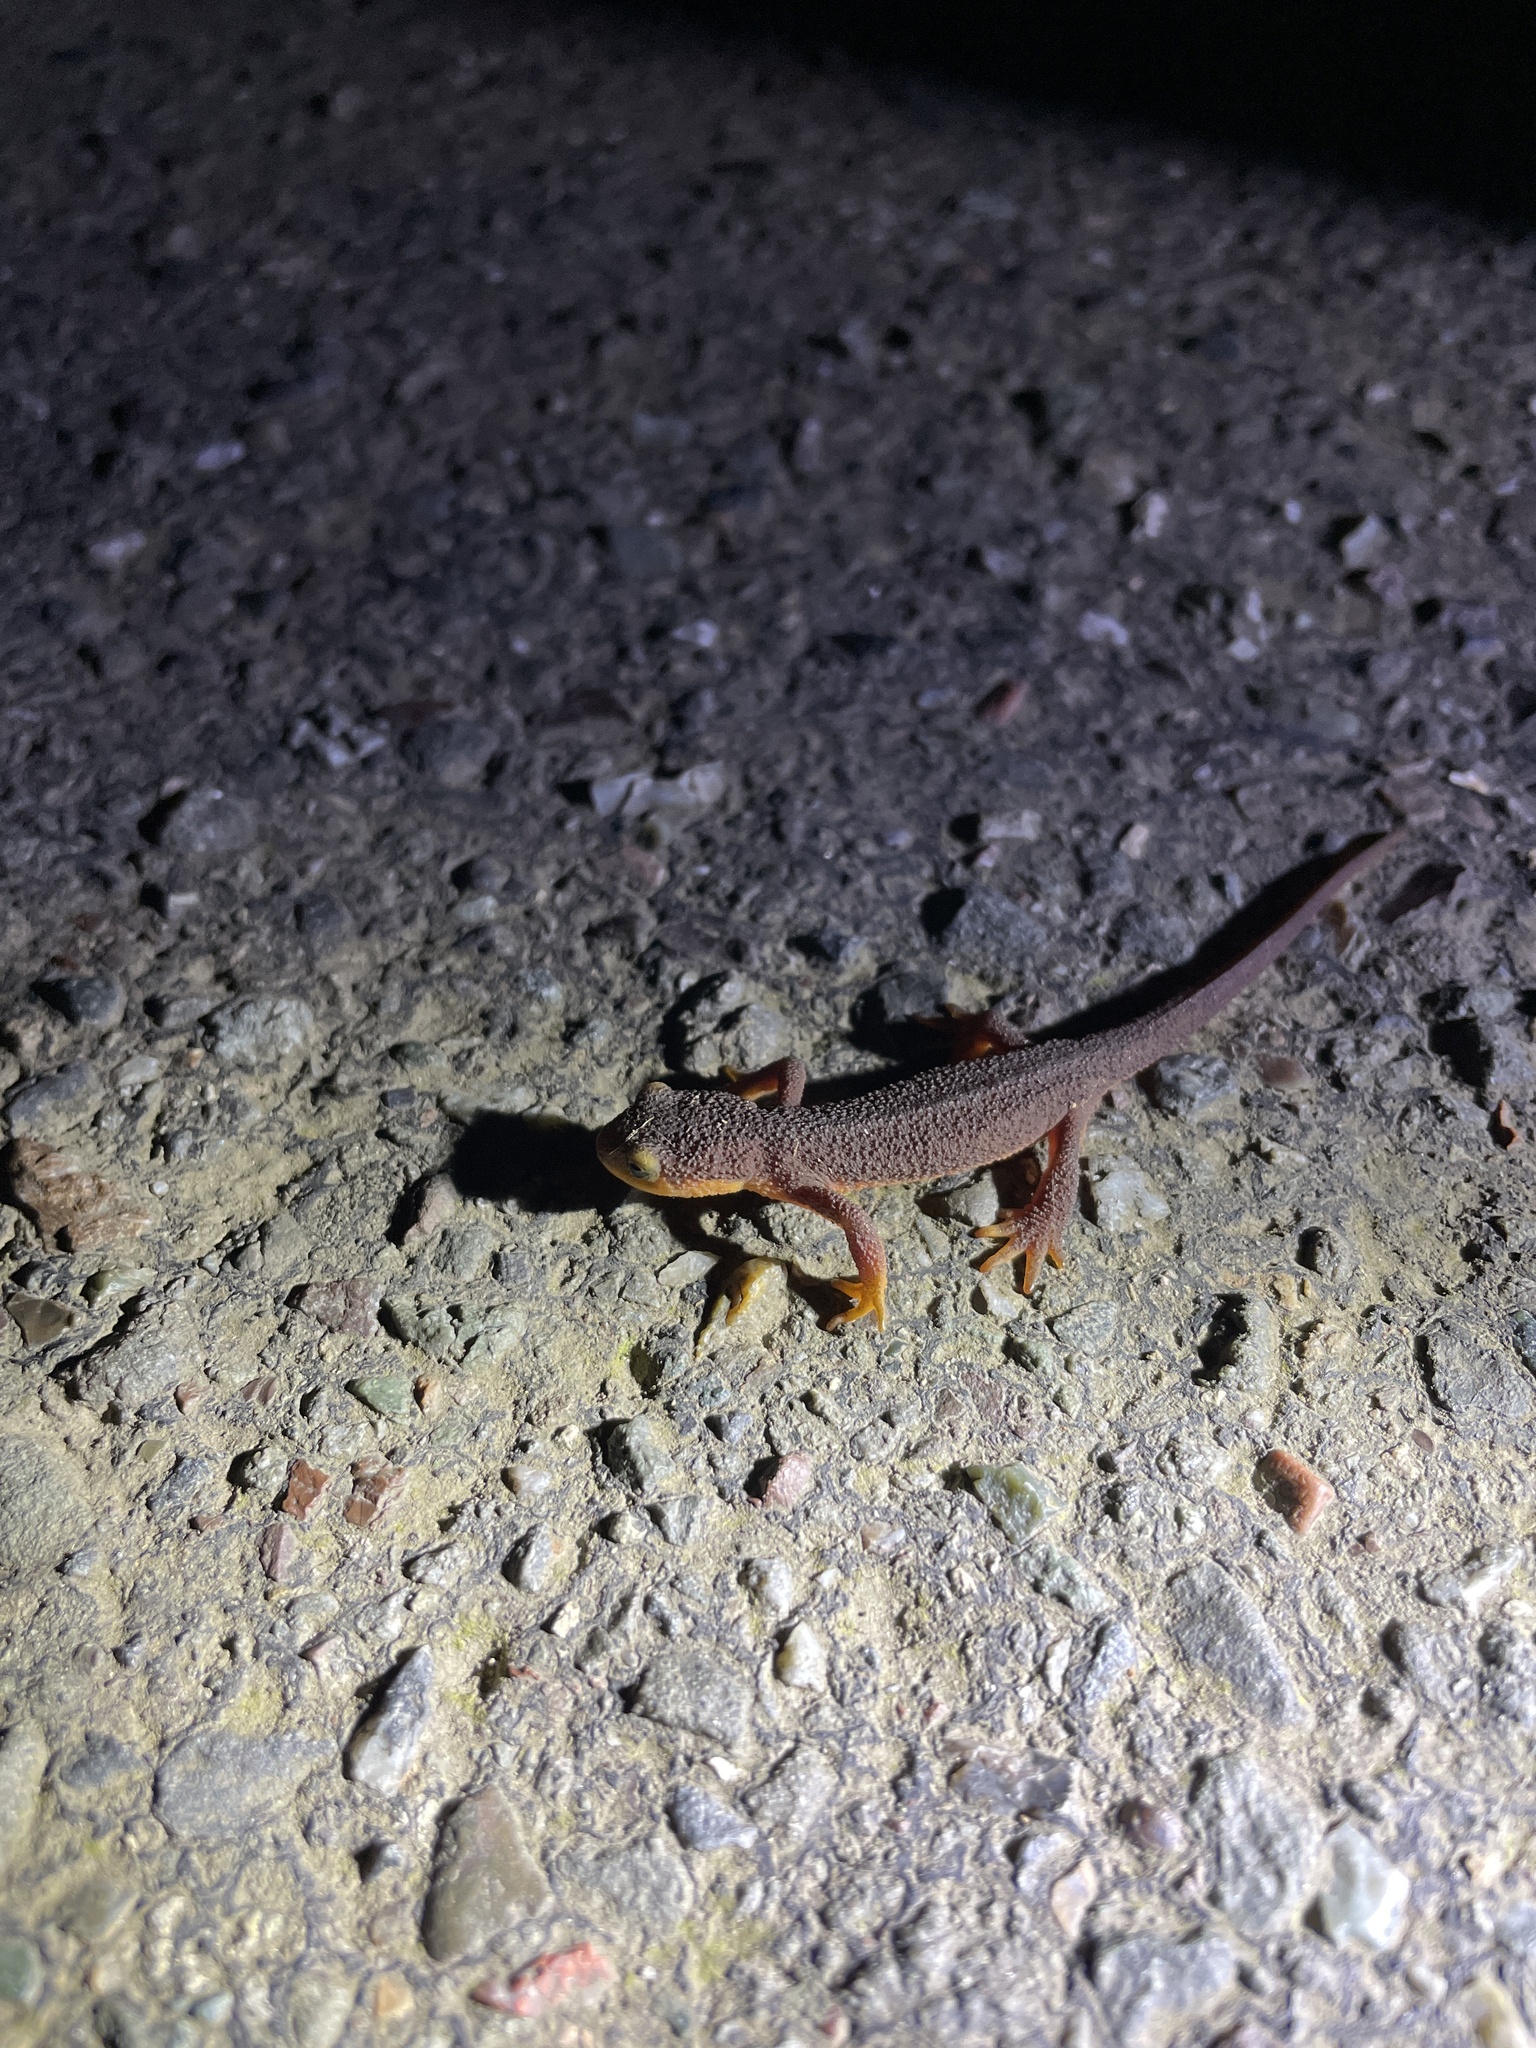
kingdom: Animalia
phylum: Chordata
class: Amphibia
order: Caudata
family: Salamandridae
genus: Taricha
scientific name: Taricha torosa
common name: California newt
